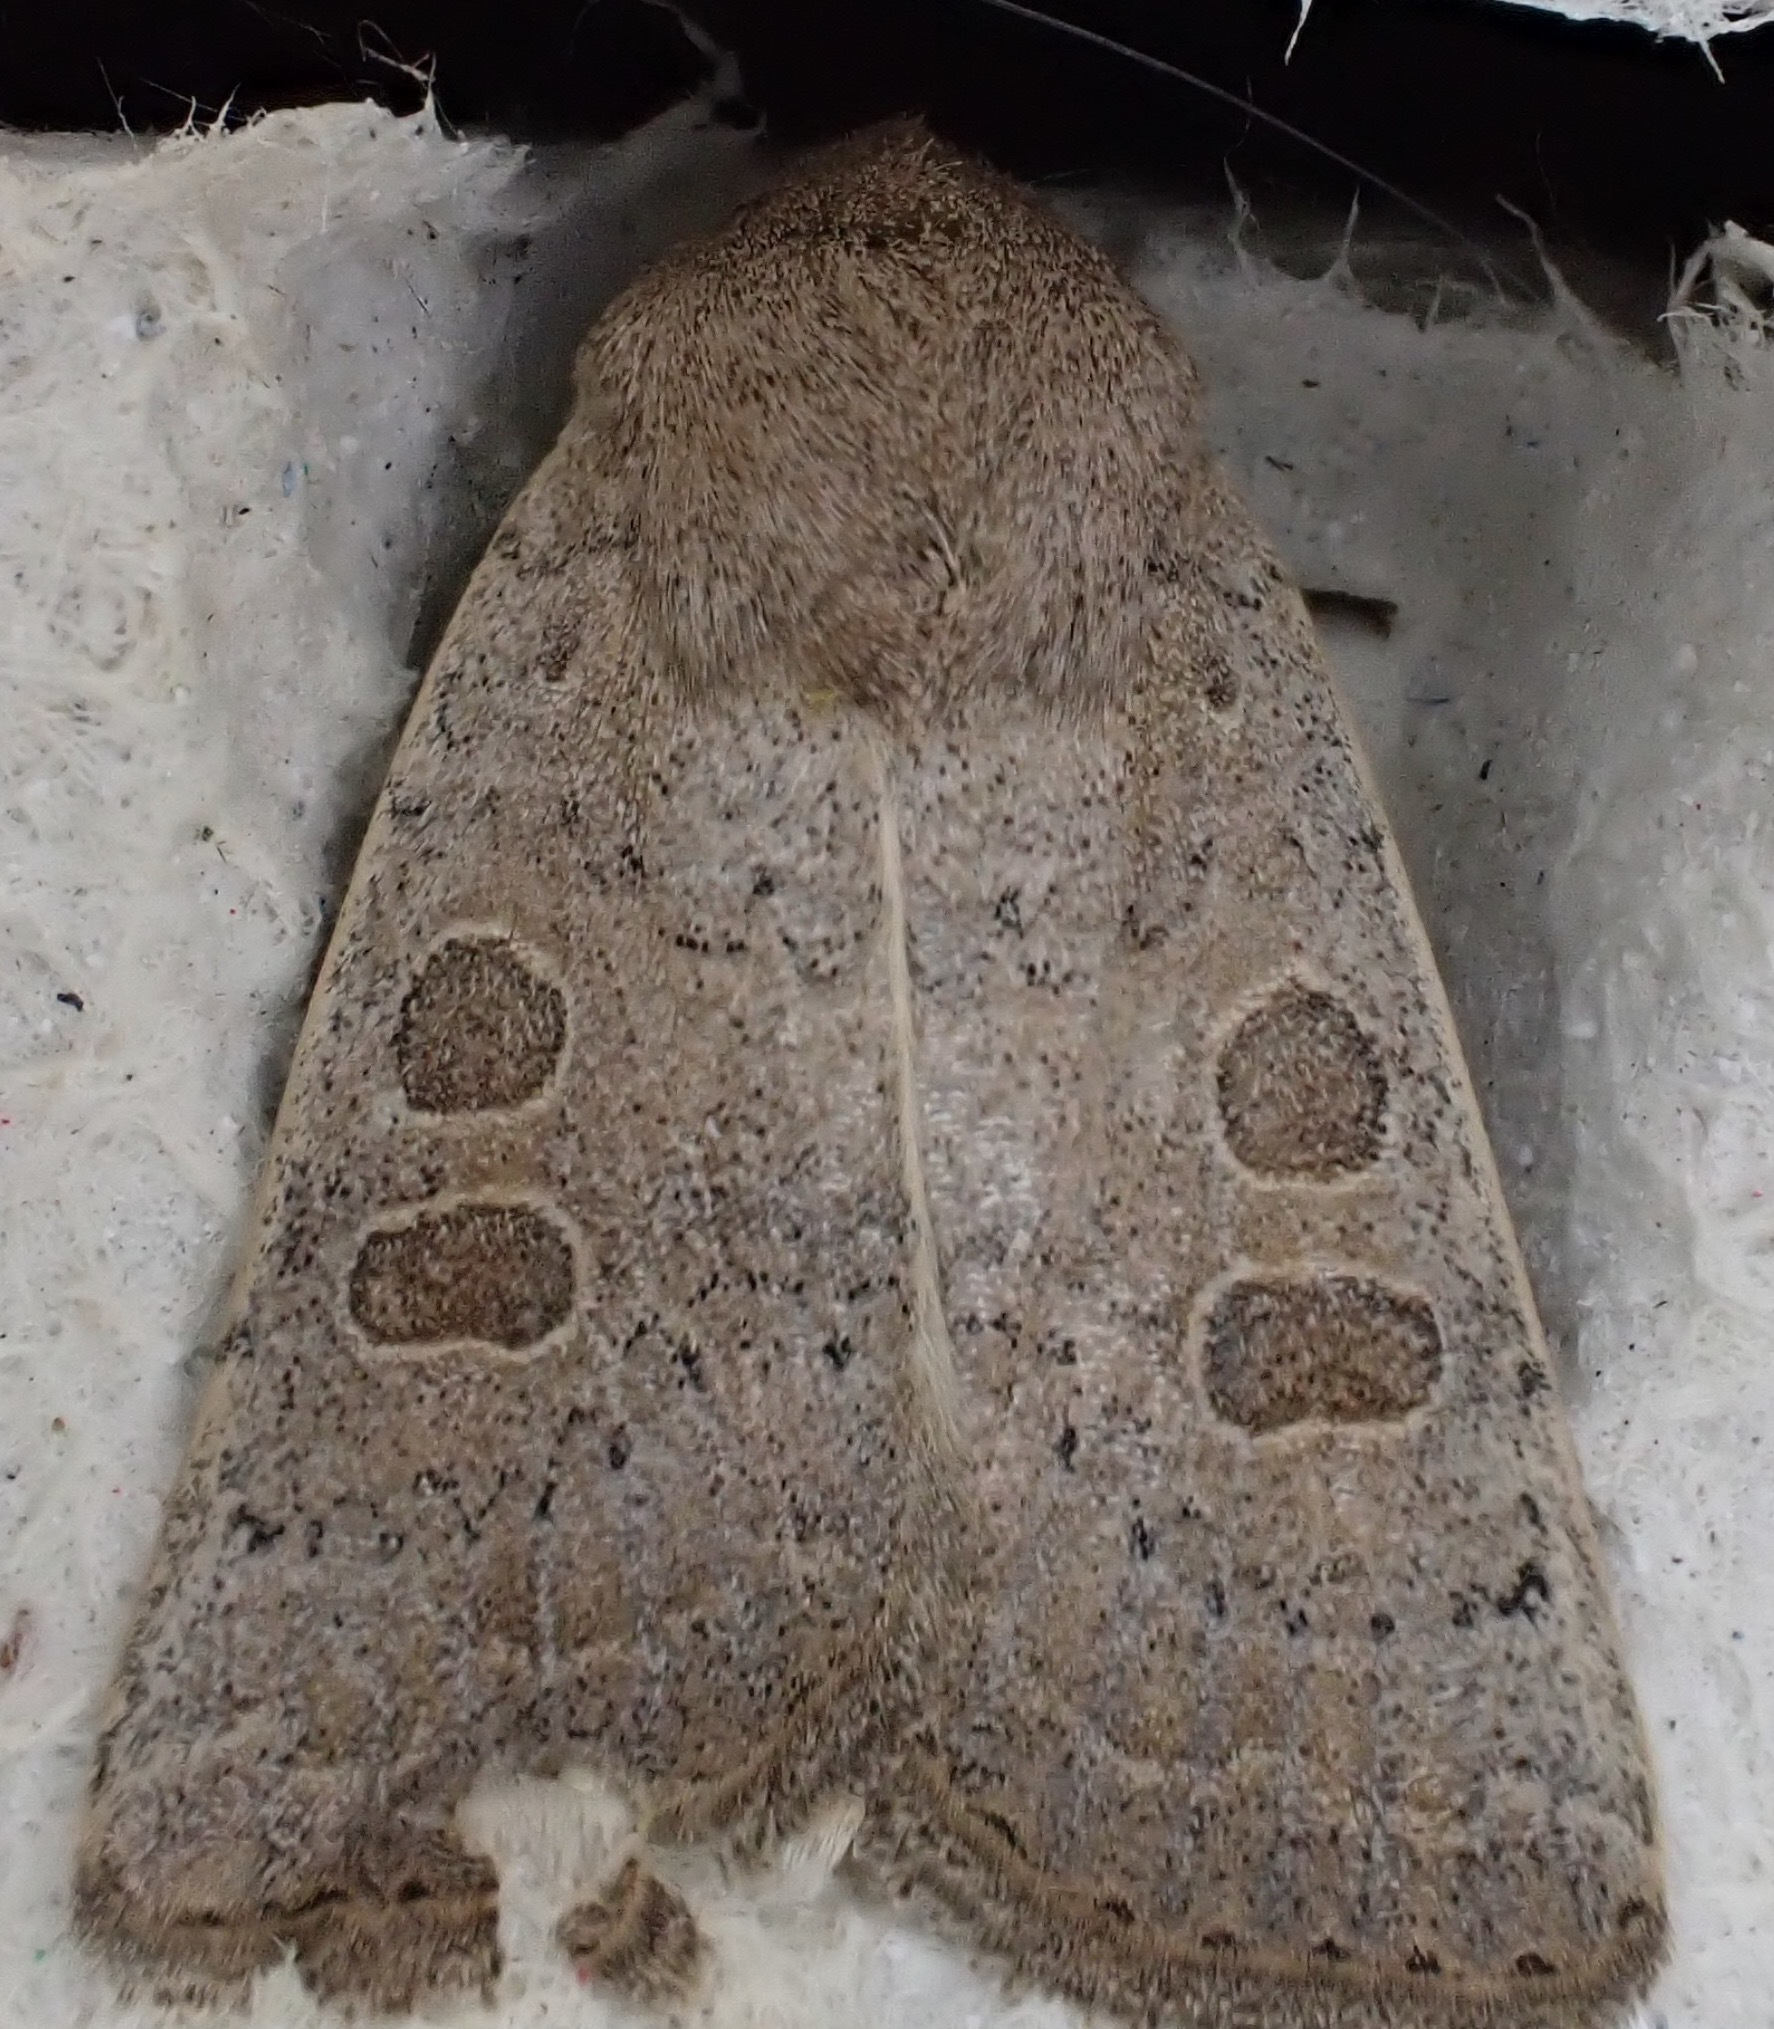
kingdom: Animalia
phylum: Arthropoda
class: Insecta
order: Lepidoptera
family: Noctuidae
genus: Hoplodrina
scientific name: Hoplodrina ambigua
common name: Vine's rustic
